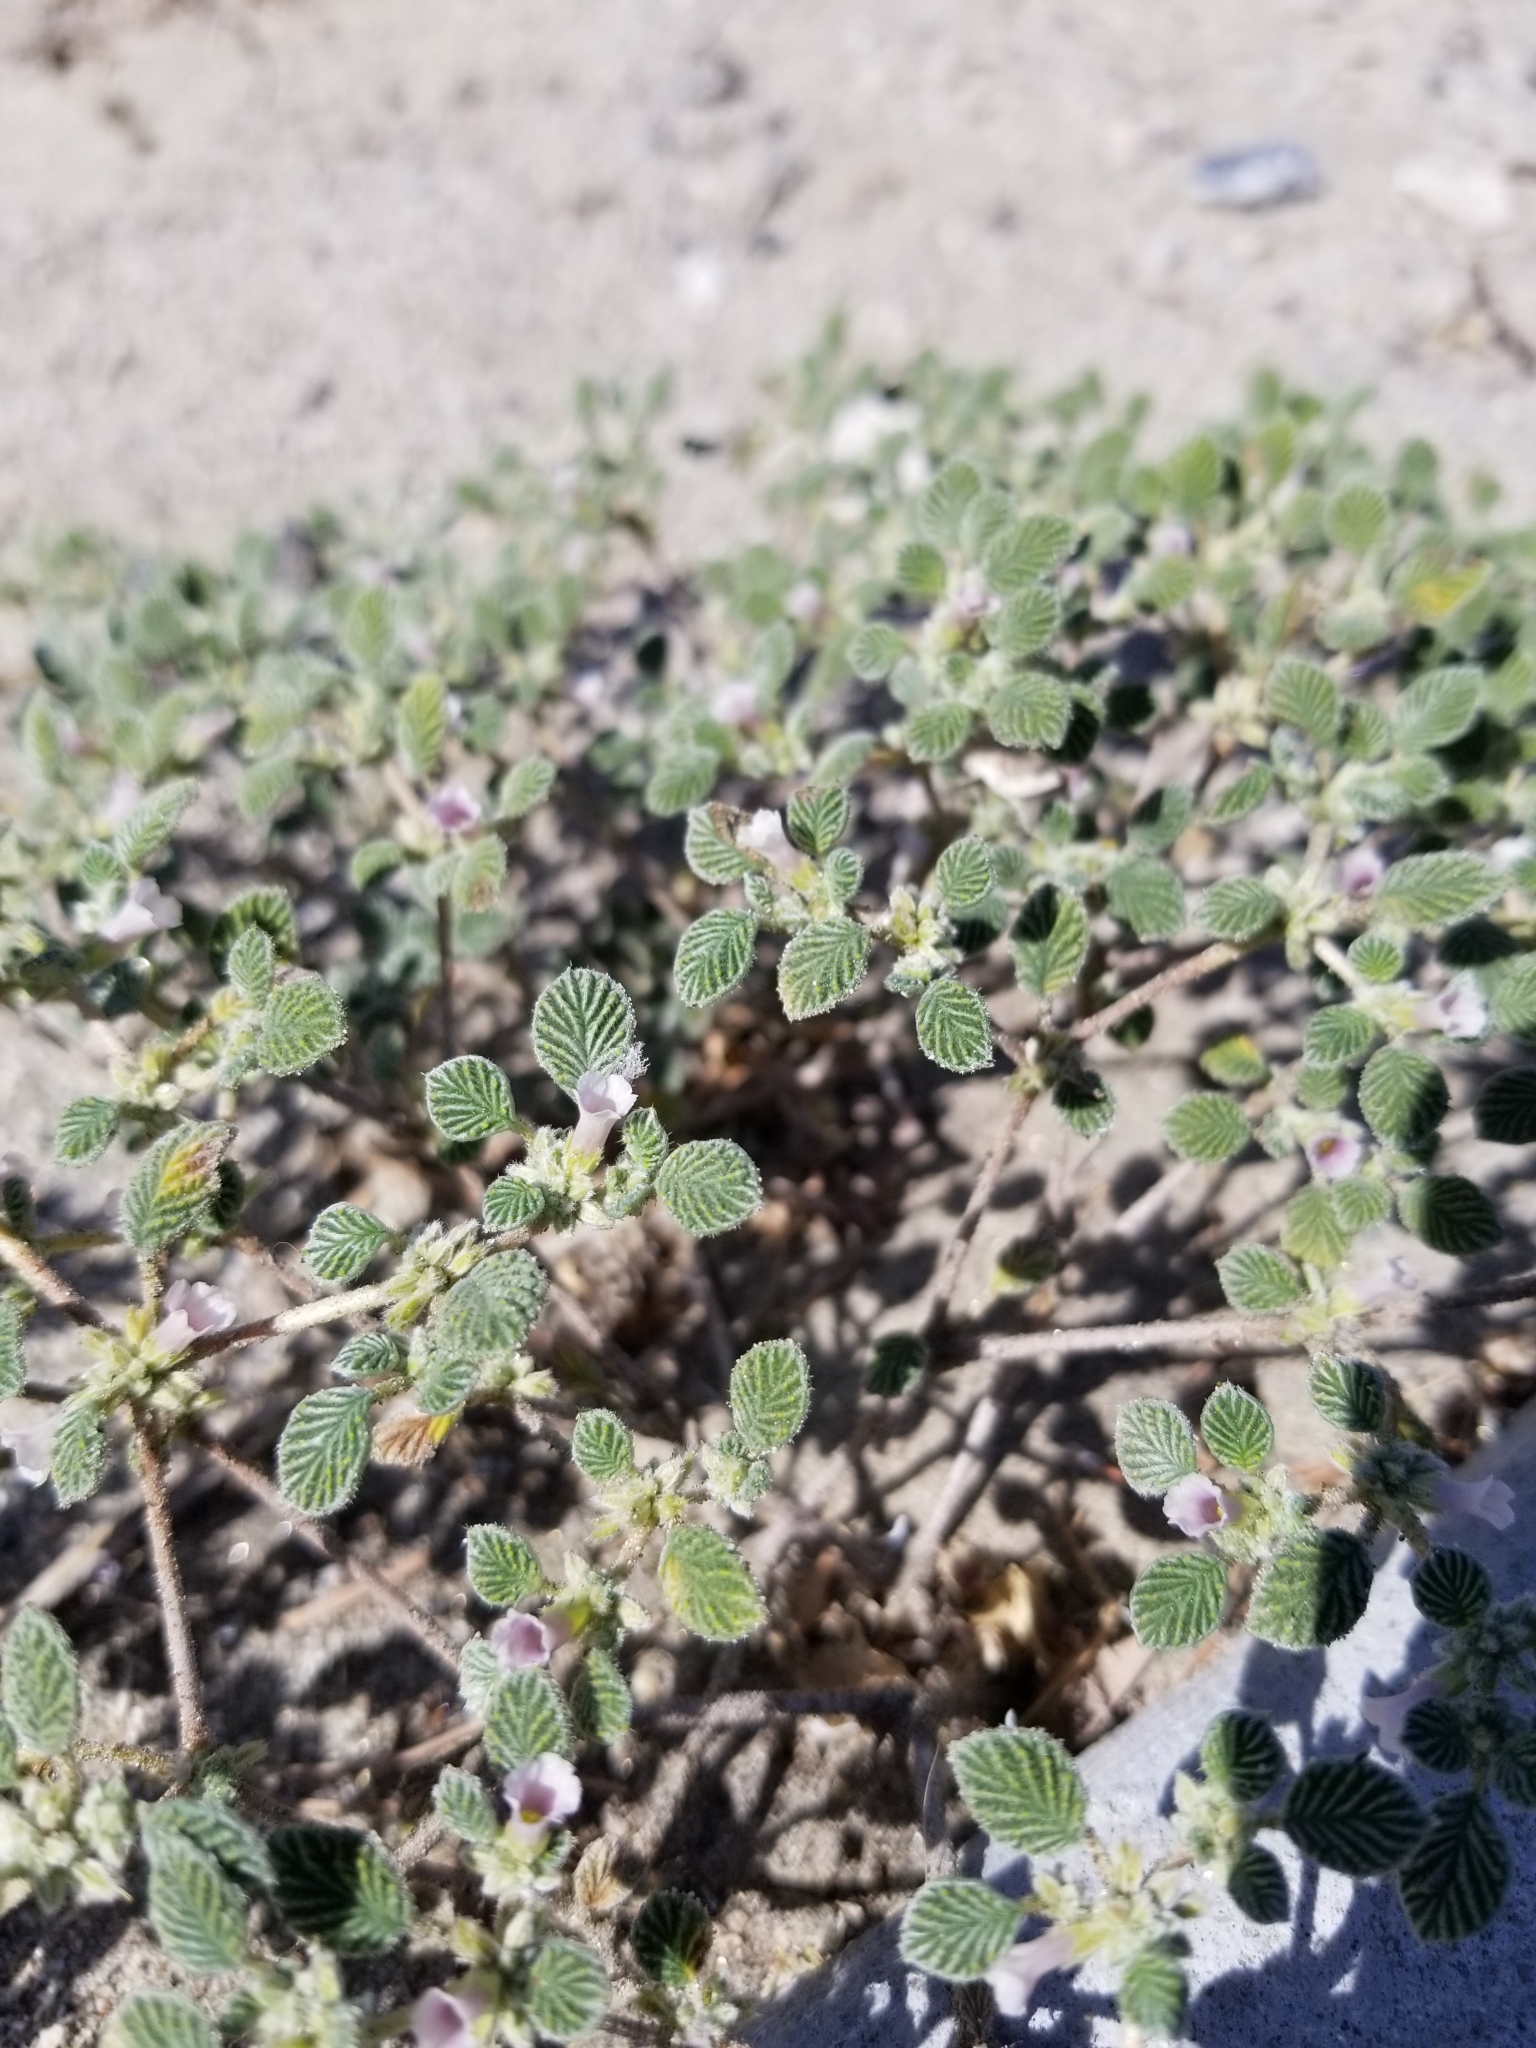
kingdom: Plantae
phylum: Tracheophyta
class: Magnoliopsida
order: Boraginales
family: Ehretiaceae
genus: Tiquilia
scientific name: Tiquilia plicata
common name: Fan-leaf tiquilia
